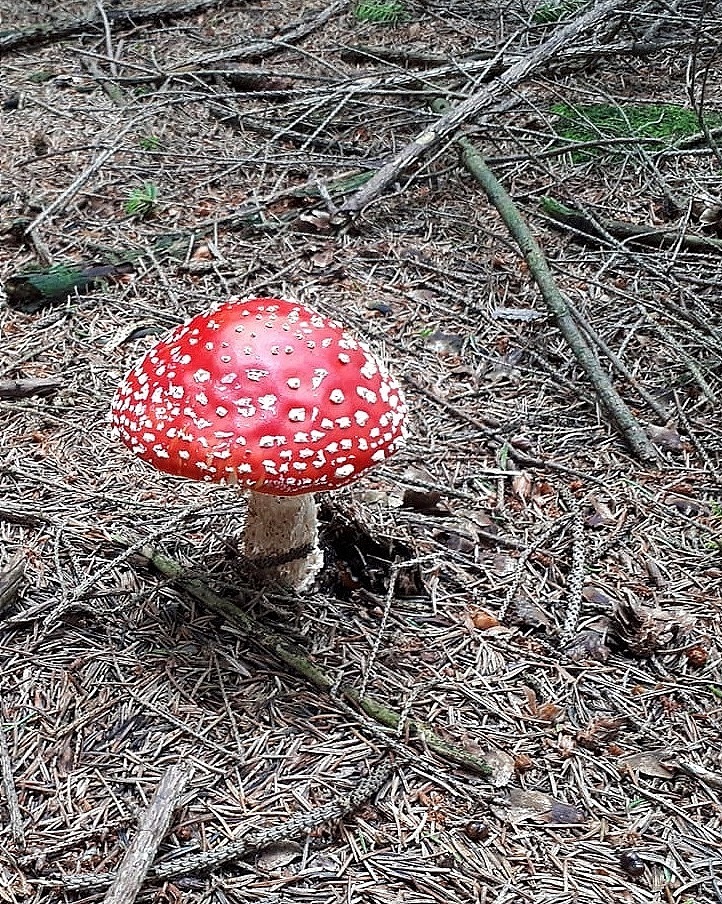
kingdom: Fungi
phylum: Basidiomycota
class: Agaricomycetes
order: Agaricales
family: Amanitaceae
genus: Amanita
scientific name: Amanita muscaria
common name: Fly agaric
